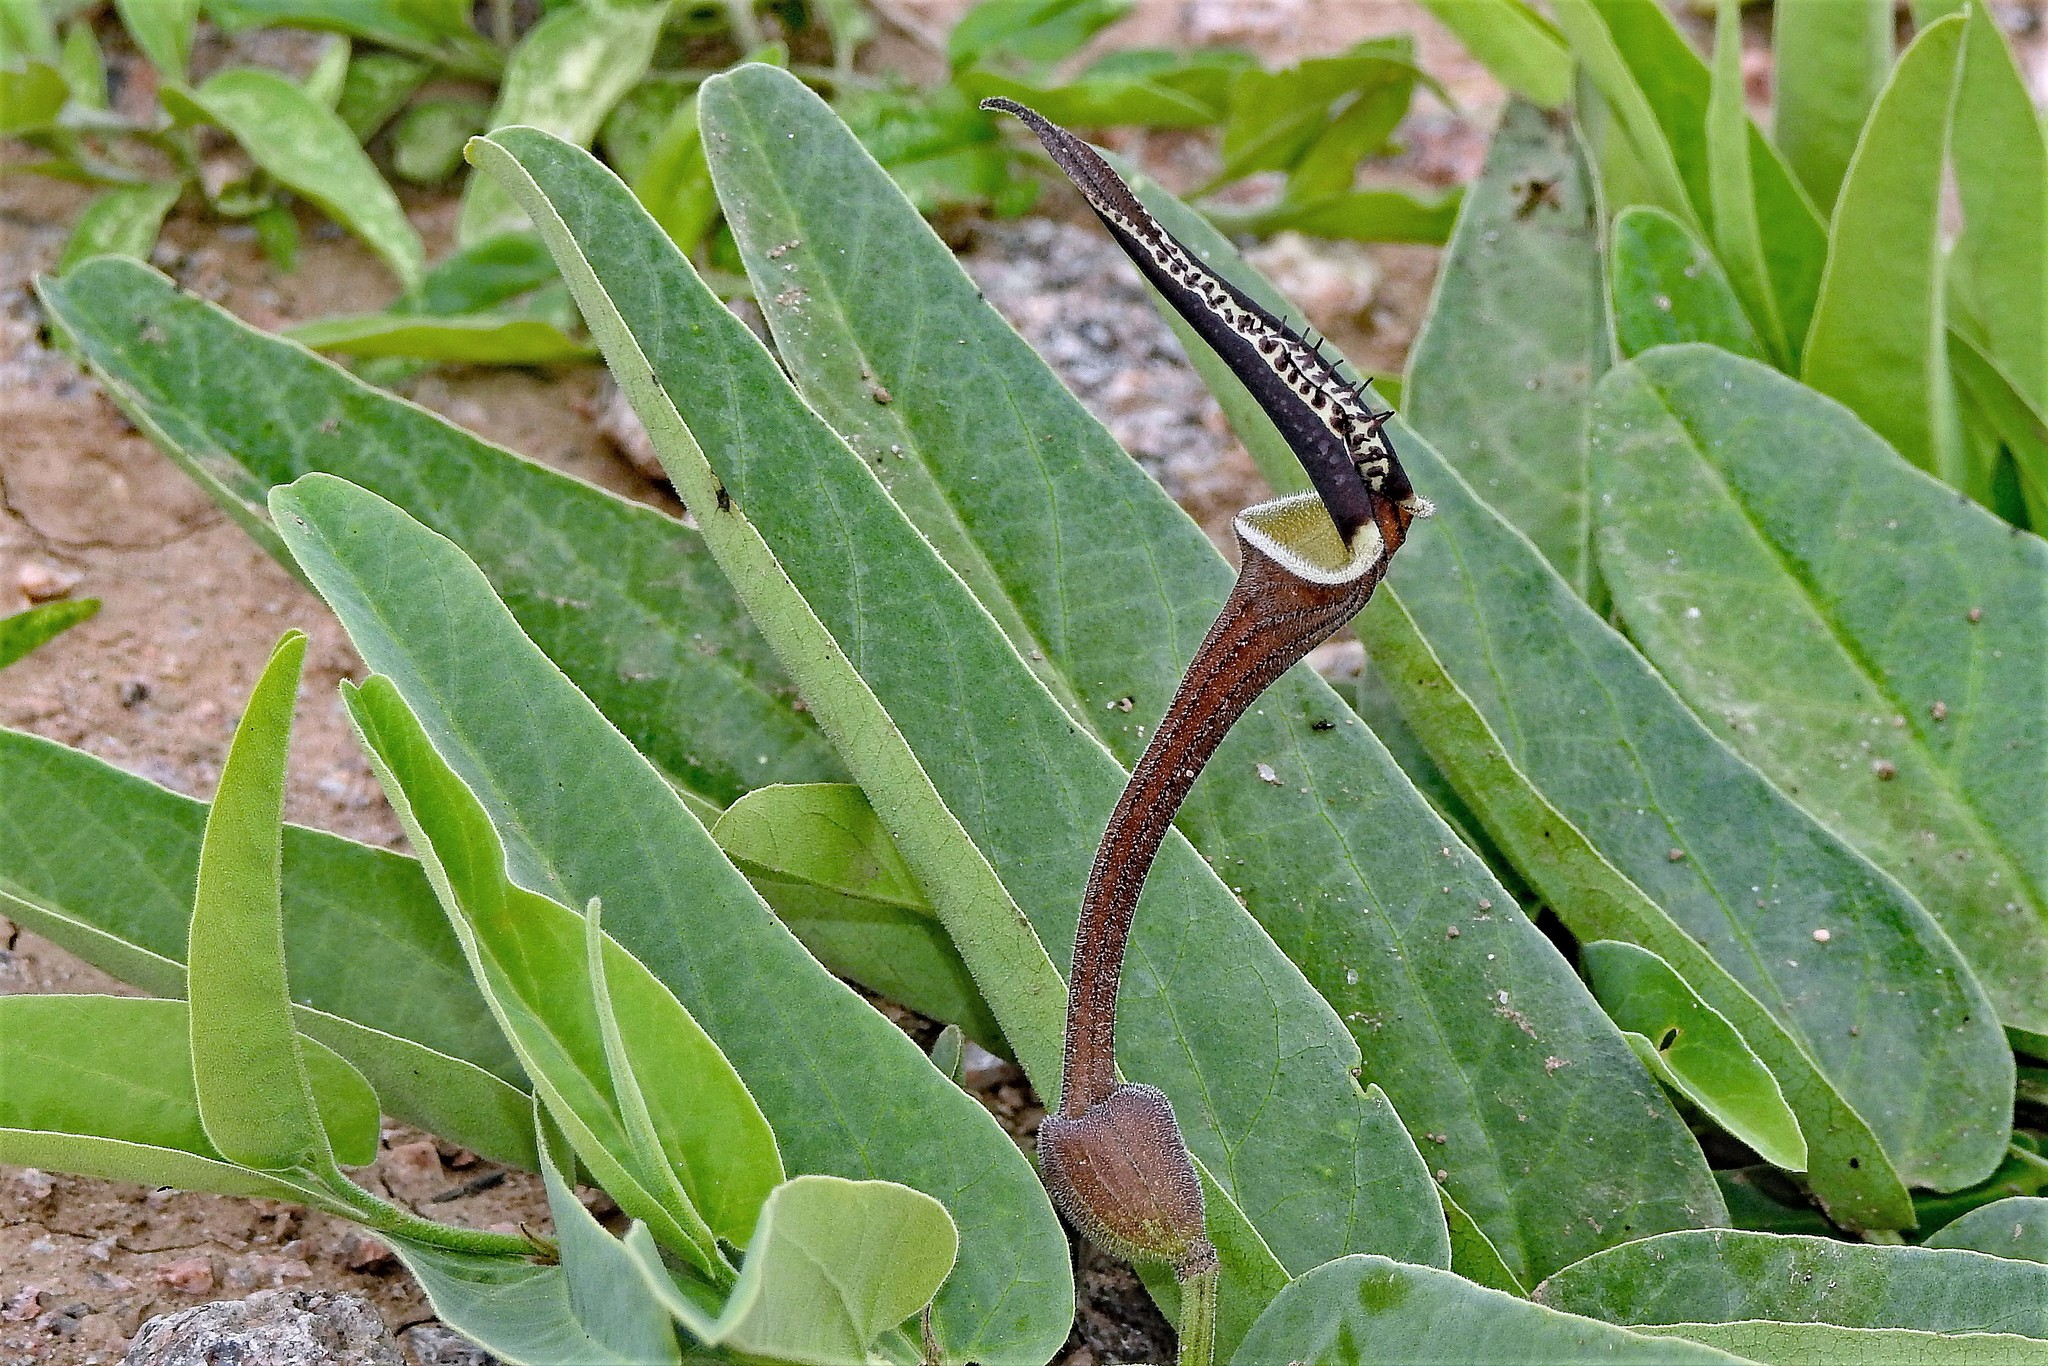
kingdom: Plantae
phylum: Tracheophyta
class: Magnoliopsida
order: Piperales
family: Aristolochiaceae
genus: Aristolochia
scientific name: Aristolochia lingua
